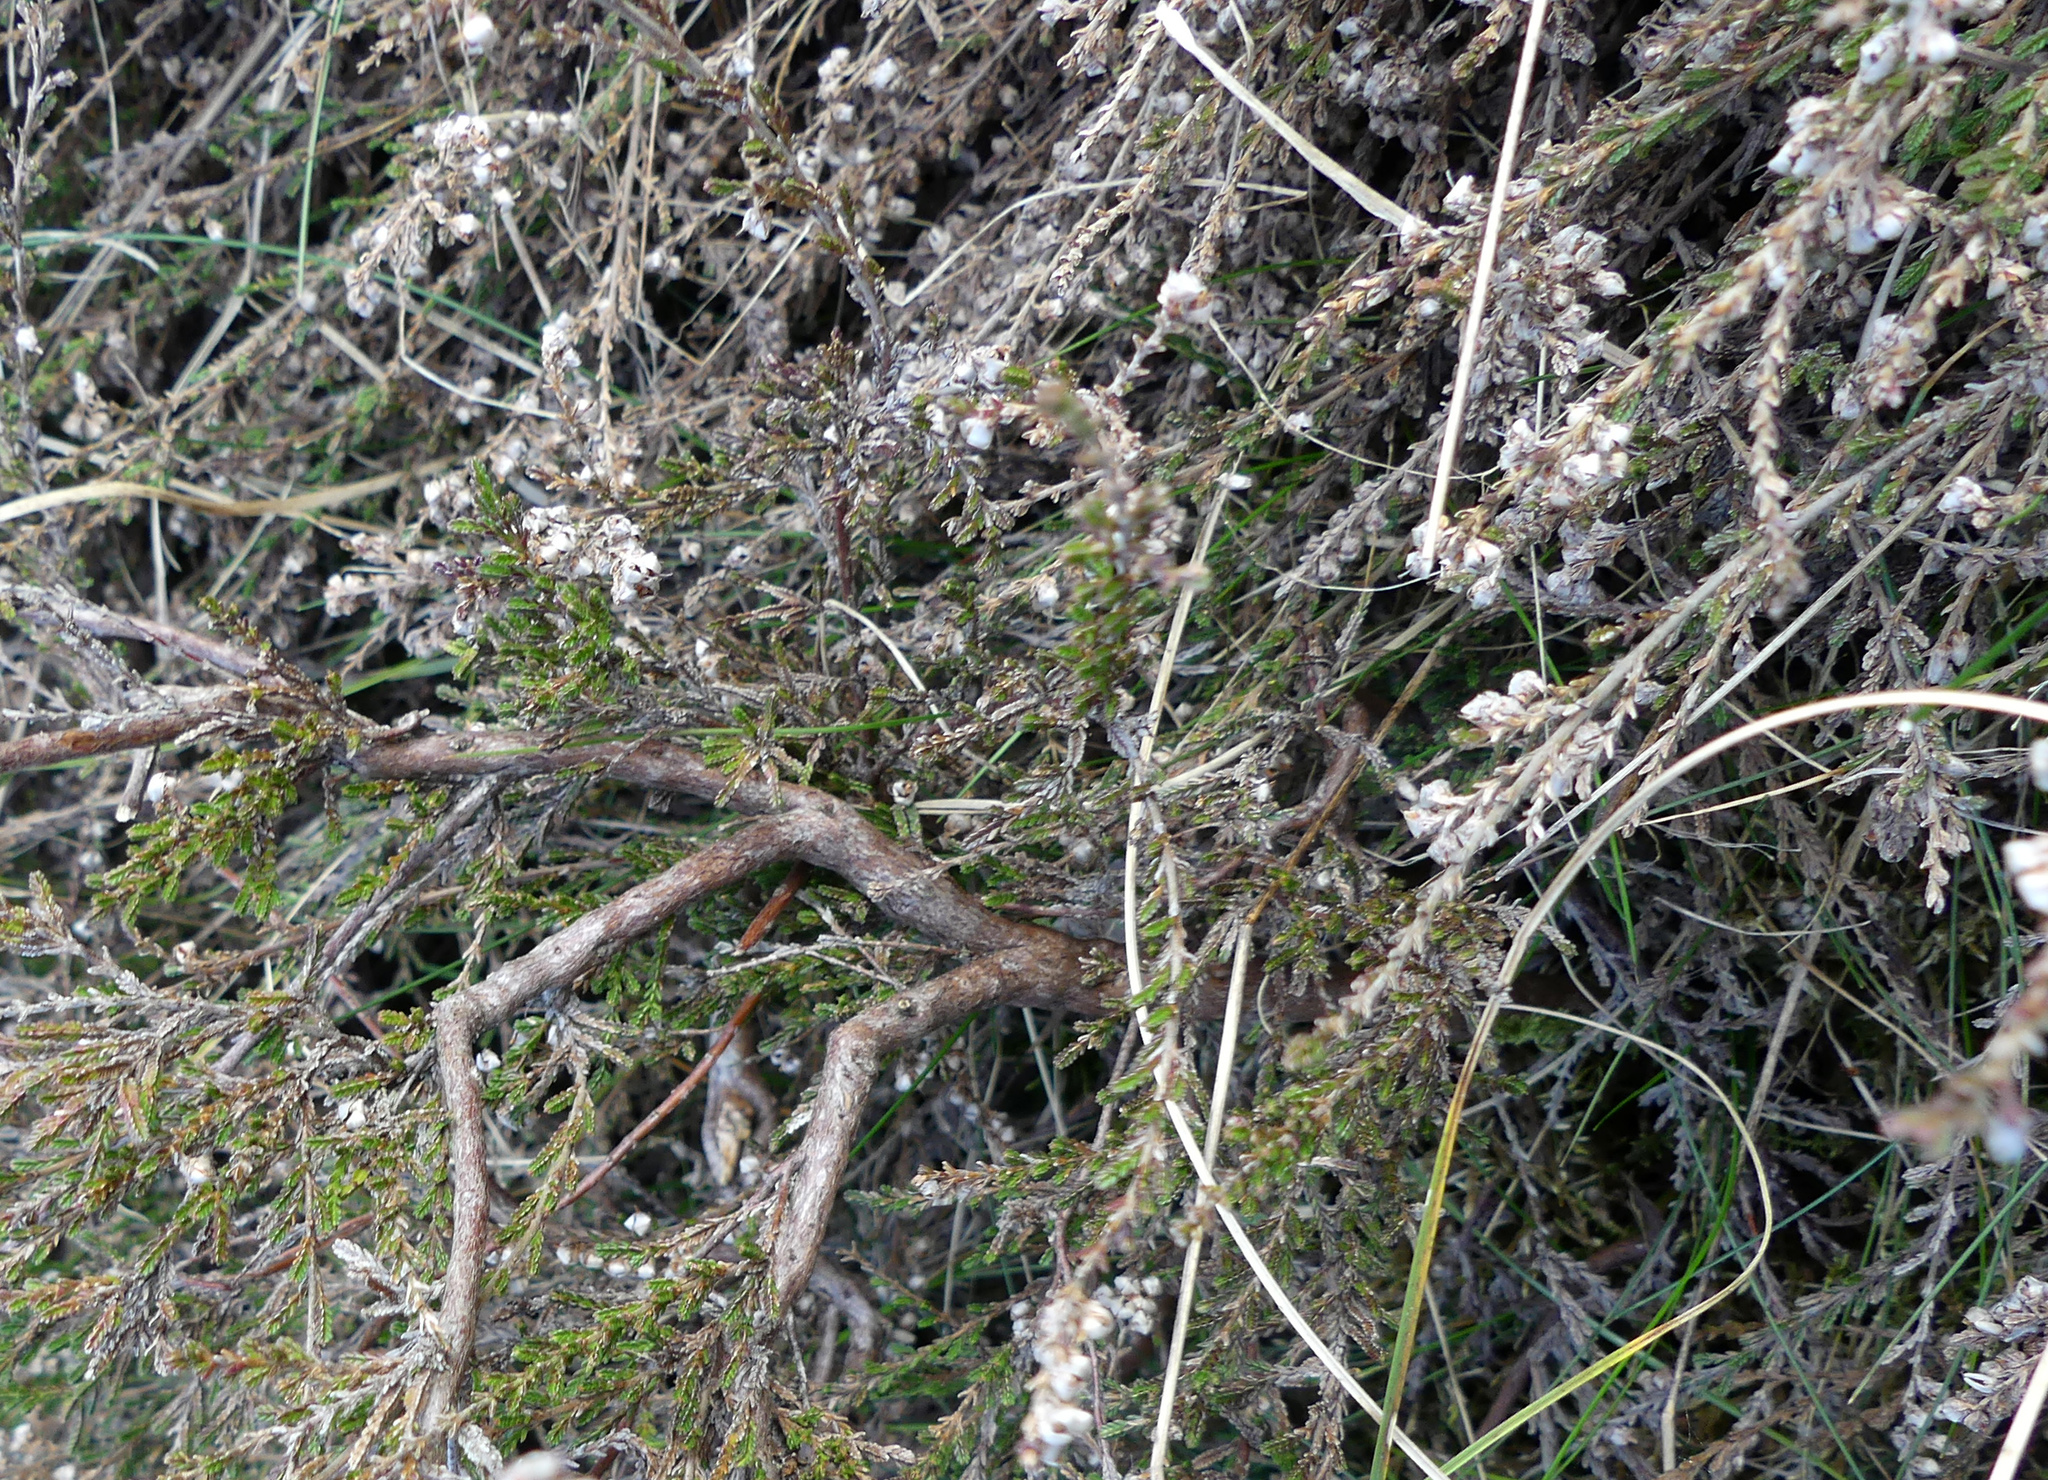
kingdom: Plantae
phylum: Tracheophyta
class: Magnoliopsida
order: Ericales
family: Ericaceae
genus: Calluna
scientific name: Calluna vulgaris
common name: Heather
